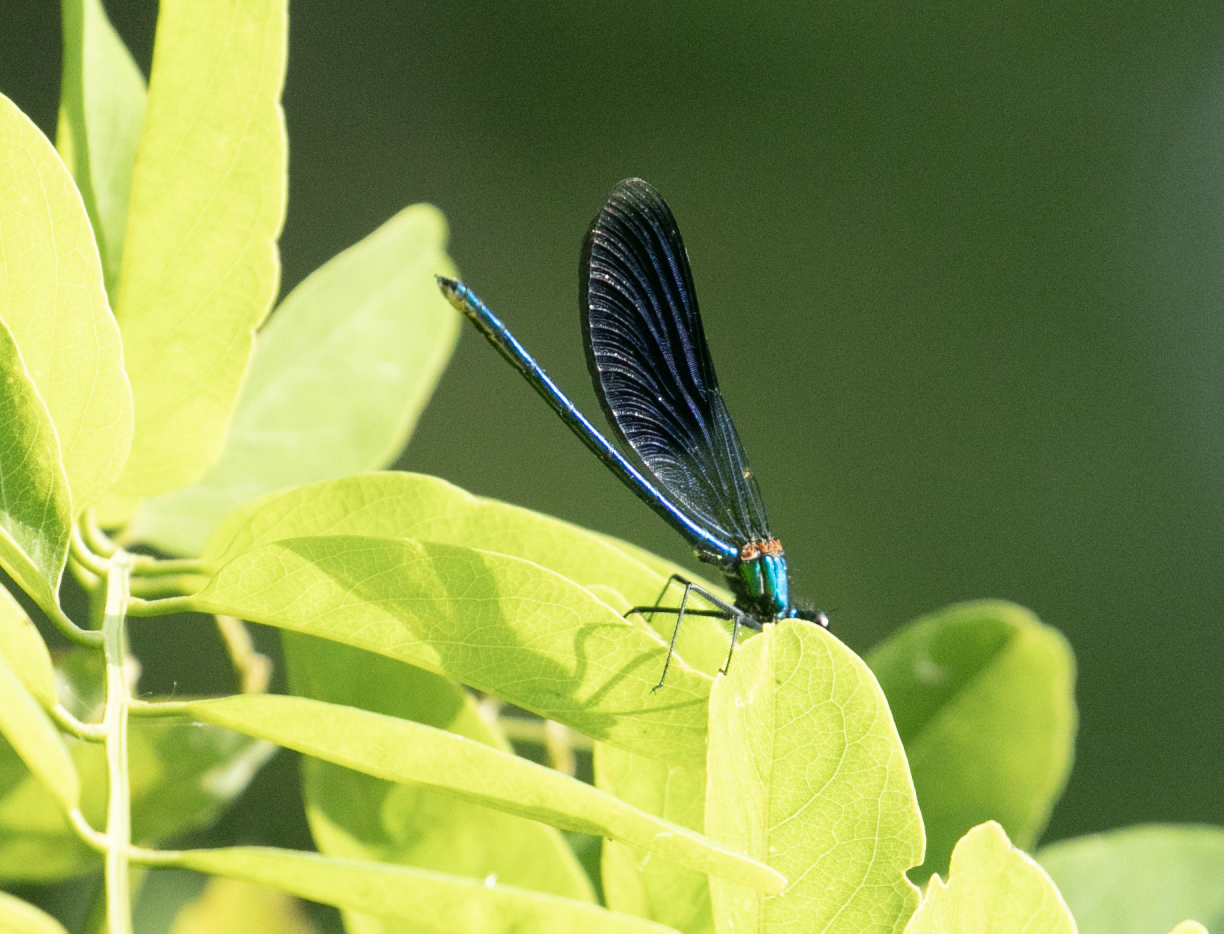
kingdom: Animalia
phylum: Arthropoda
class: Insecta
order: Odonata
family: Calopterygidae
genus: Calopteryx
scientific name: Calopteryx splendens
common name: Banded demoiselle
